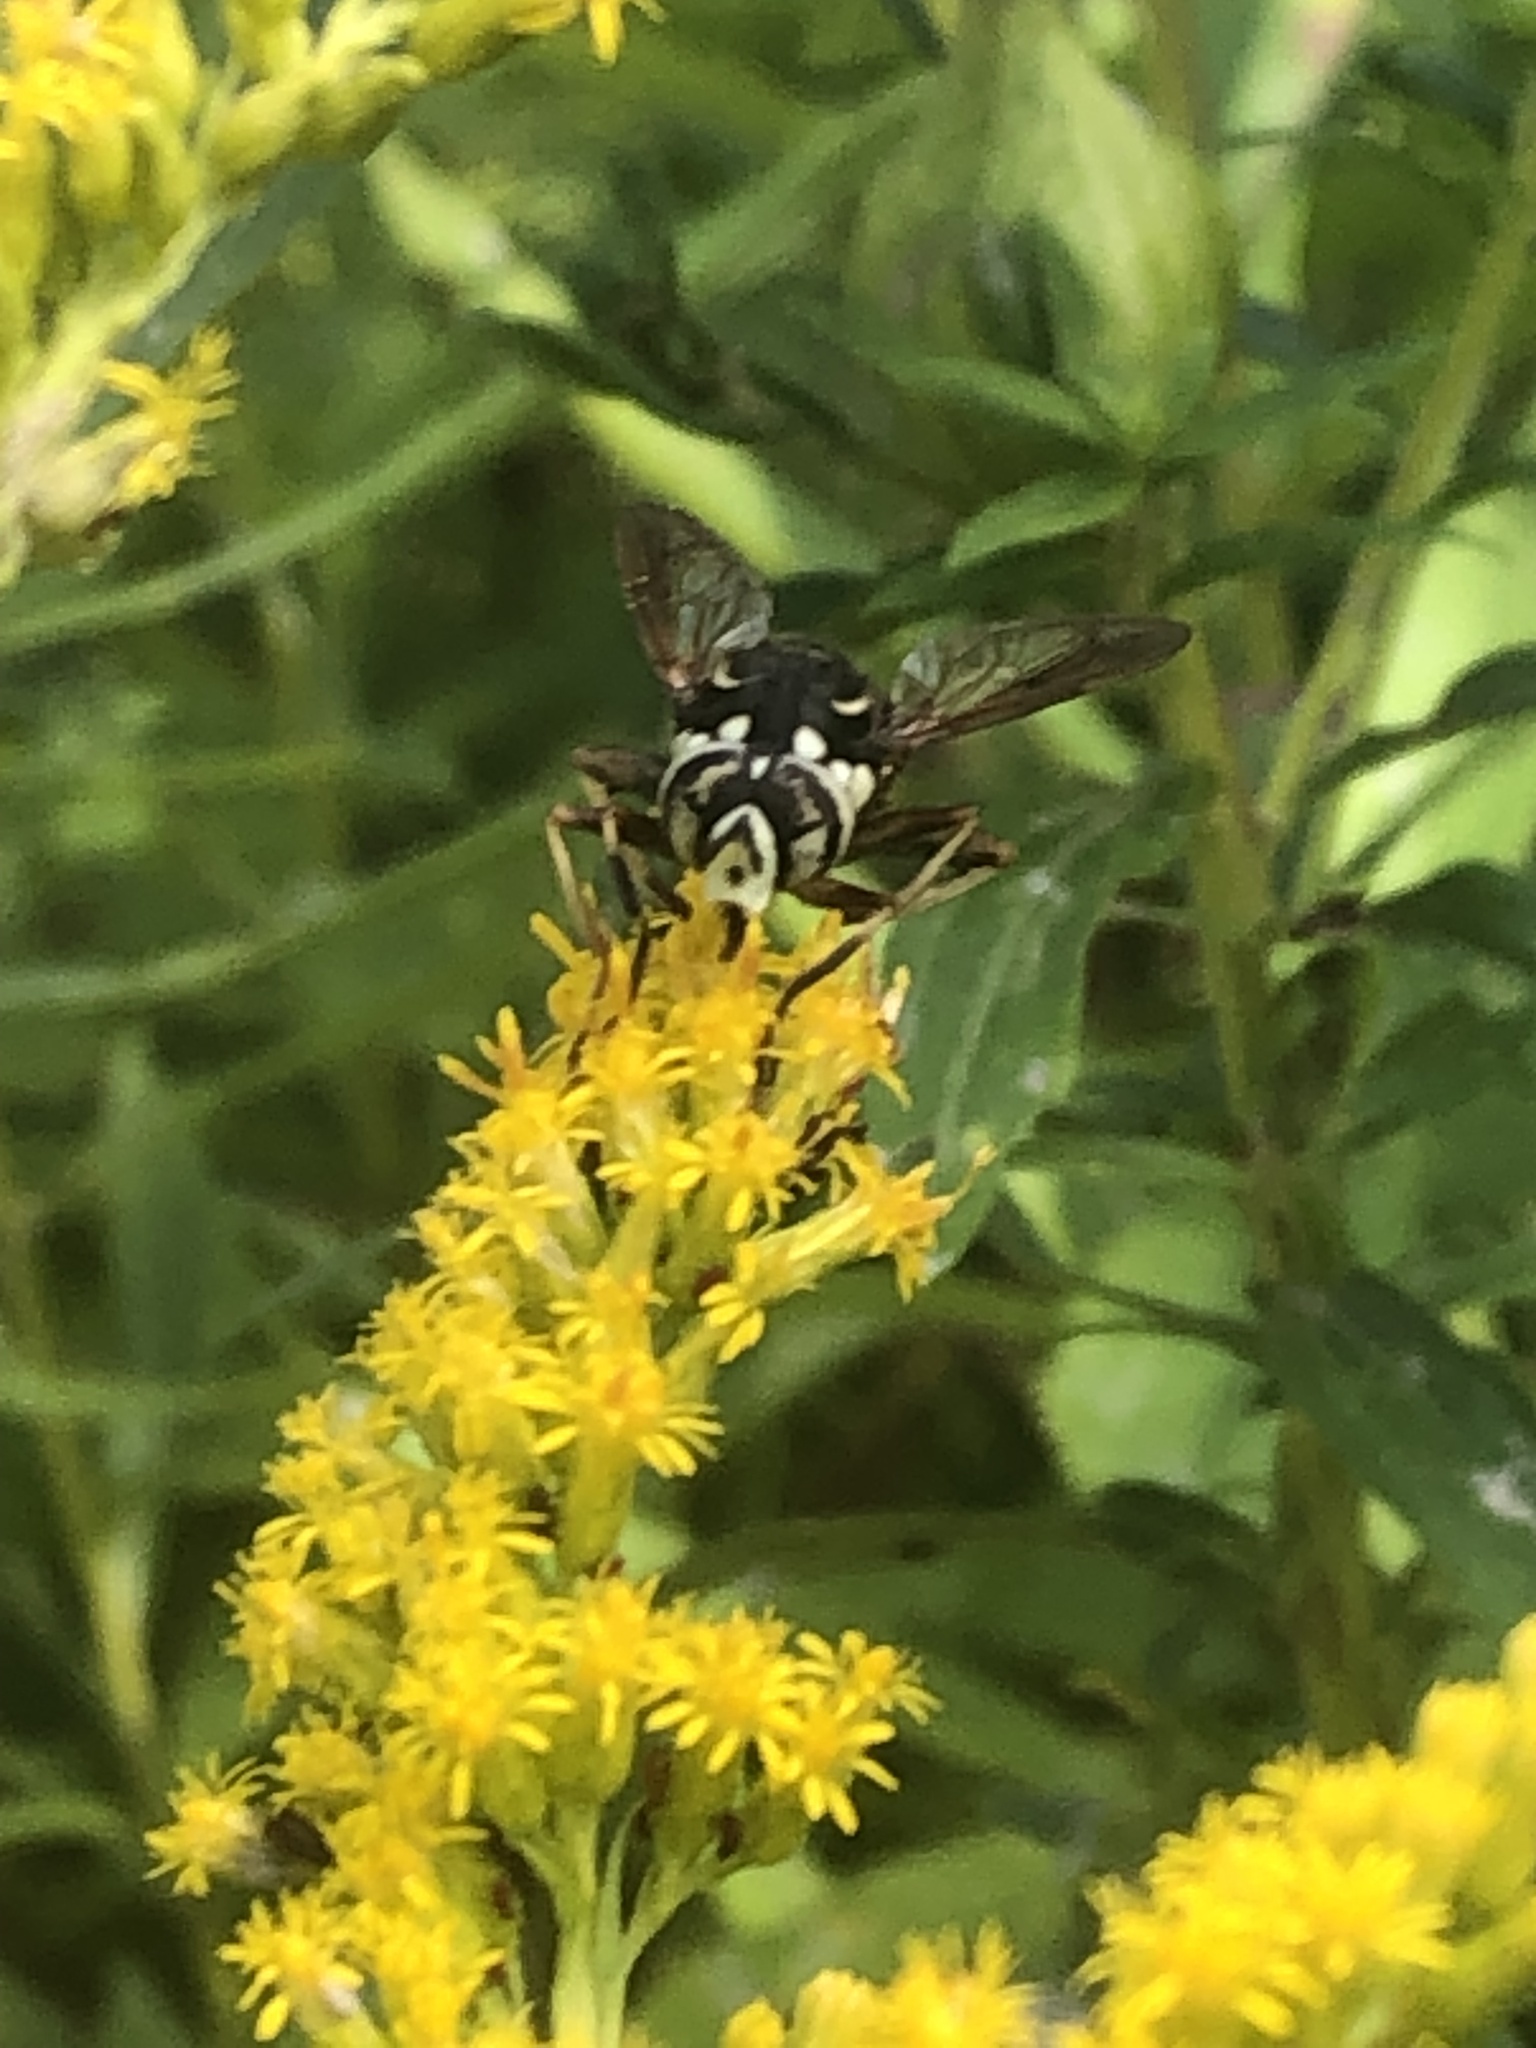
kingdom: Animalia
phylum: Arthropoda
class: Insecta
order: Diptera
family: Syrphidae
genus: Spilomyia
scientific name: Spilomyia fusca
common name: Bald-faced hornet fly
